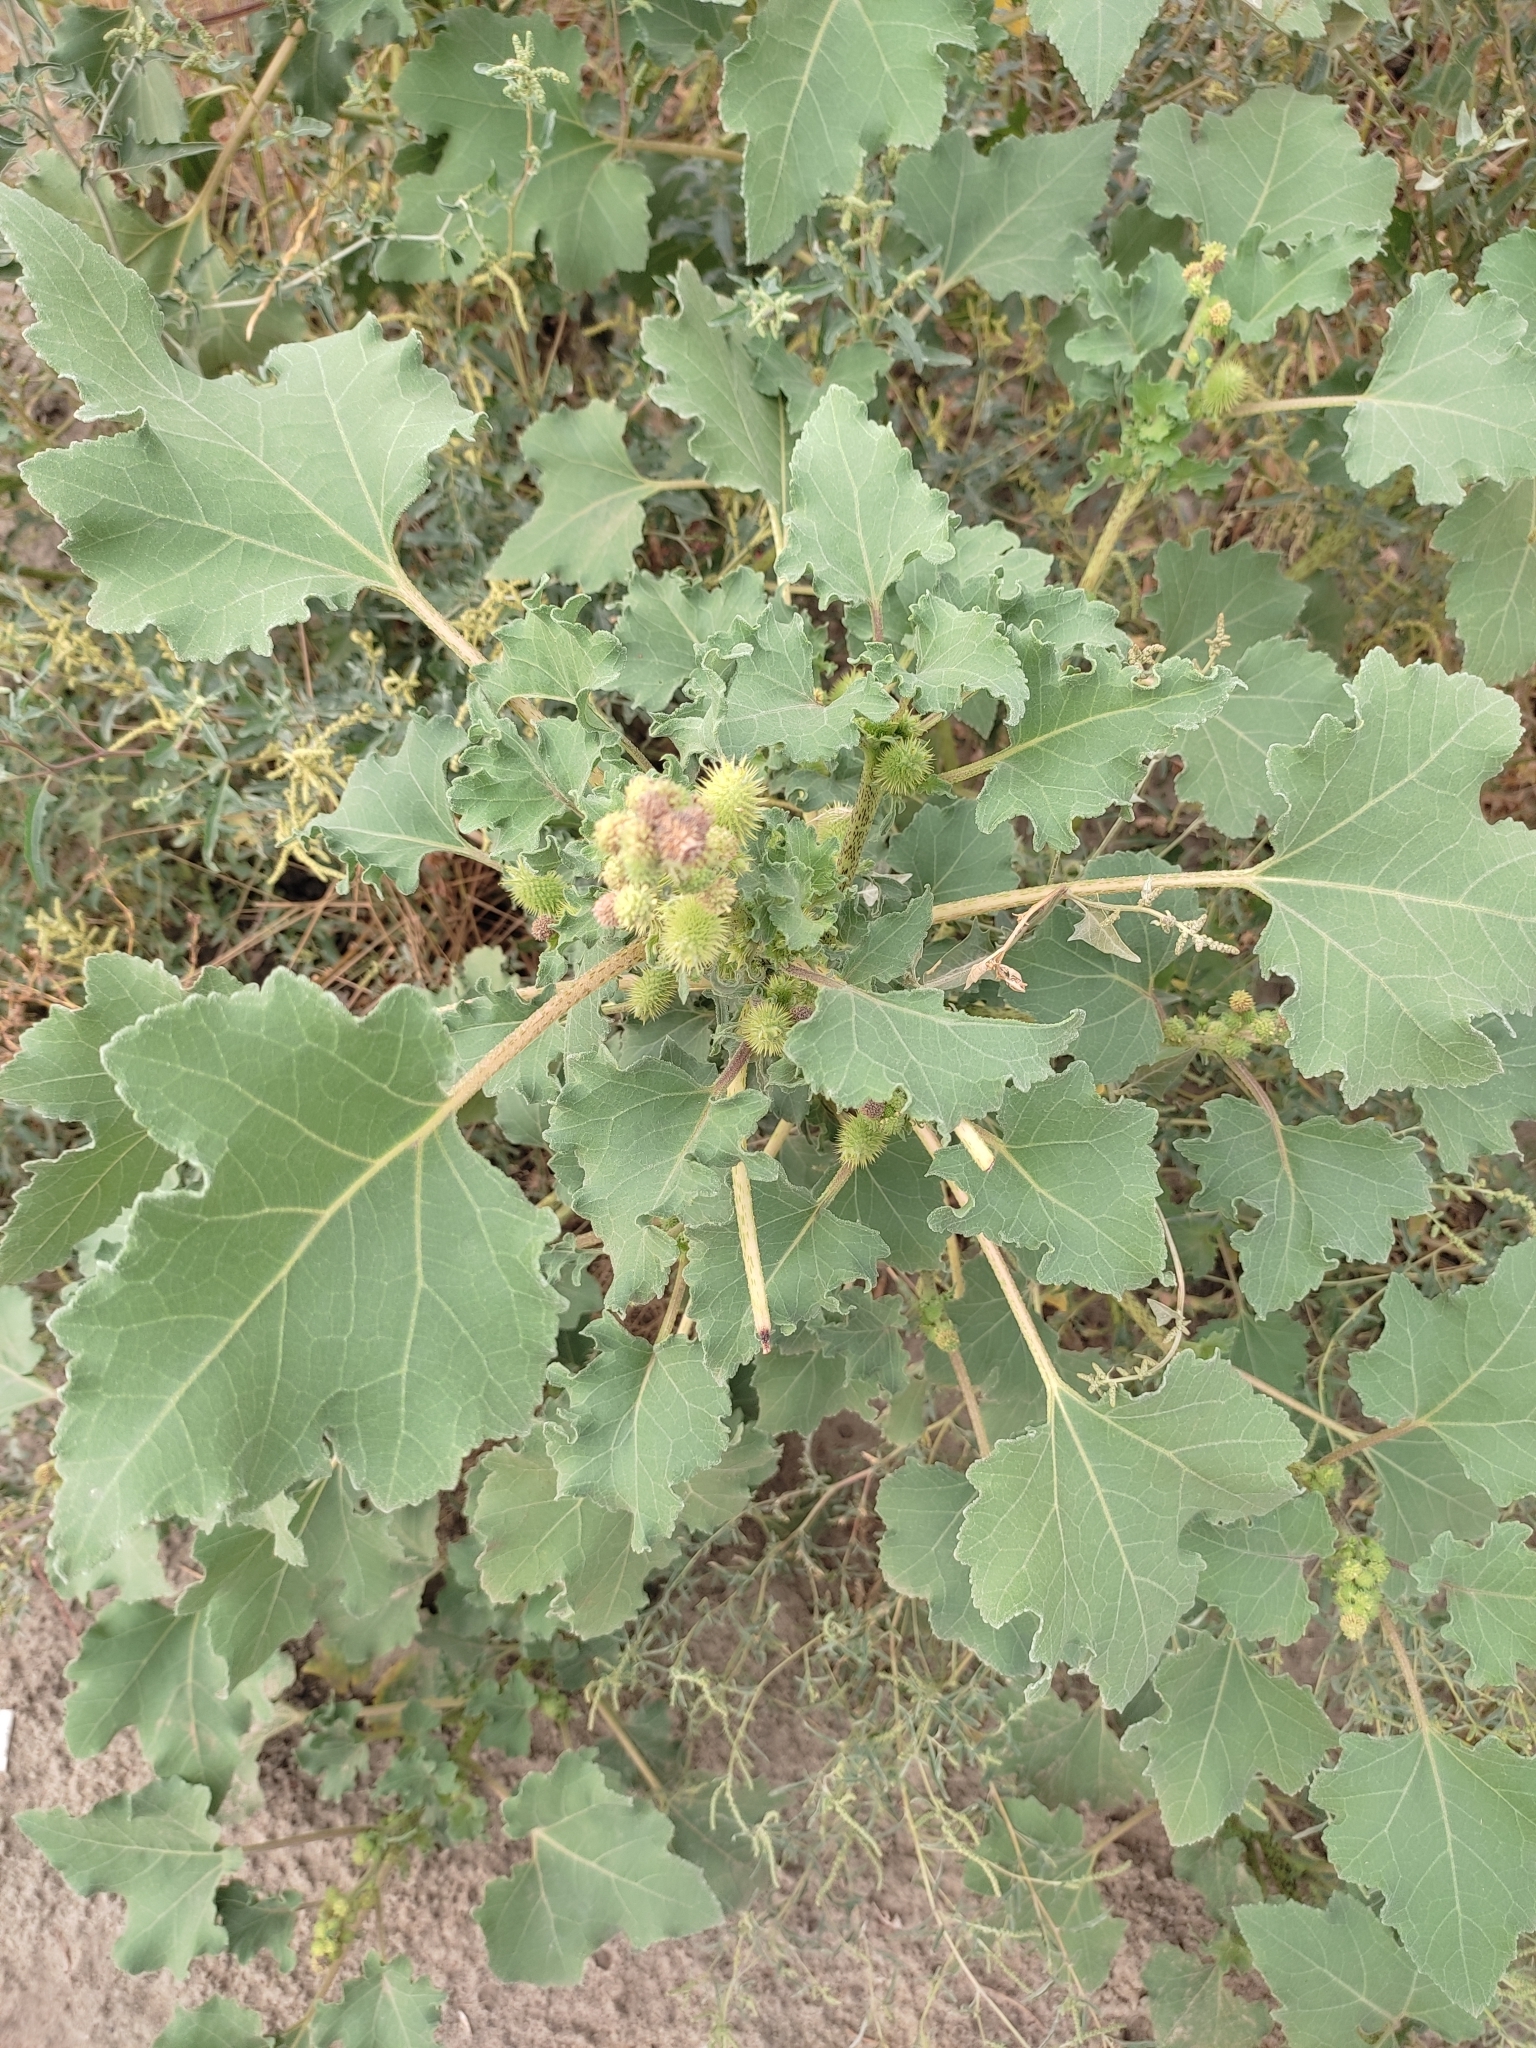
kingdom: Plantae
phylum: Tracheophyta
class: Magnoliopsida
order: Asterales
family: Asteraceae
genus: Xanthium
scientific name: Xanthium orientale
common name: Californian burr
